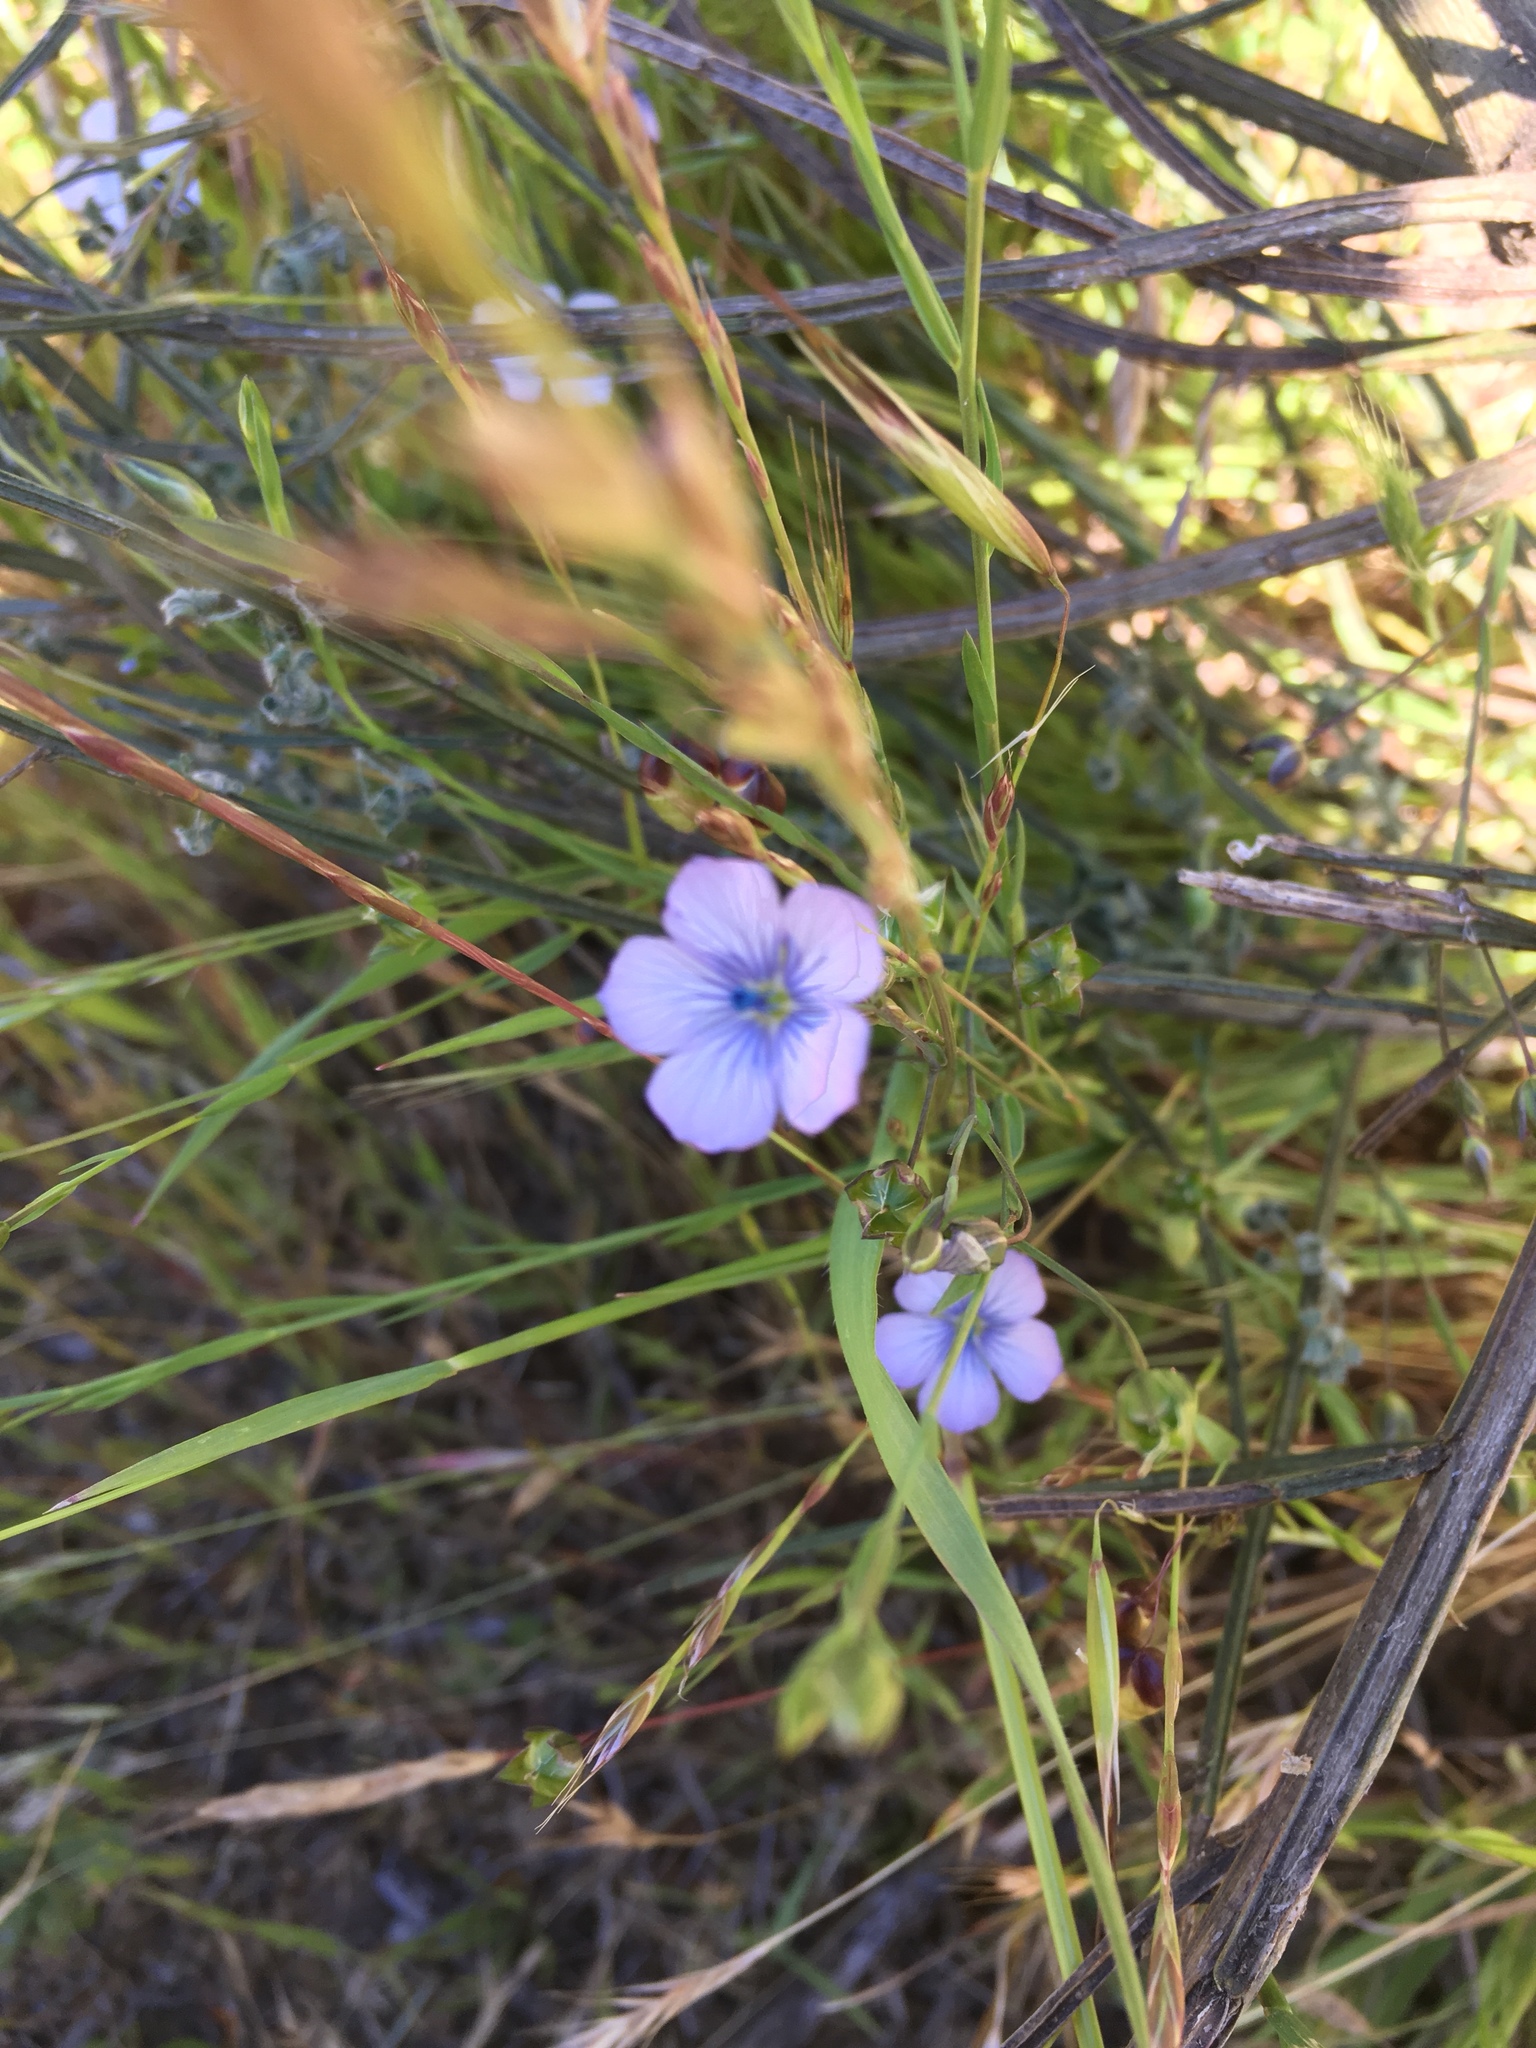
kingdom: Plantae
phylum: Tracheophyta
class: Magnoliopsida
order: Malpighiales
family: Linaceae
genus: Linum
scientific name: Linum bienne
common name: Pale flax
